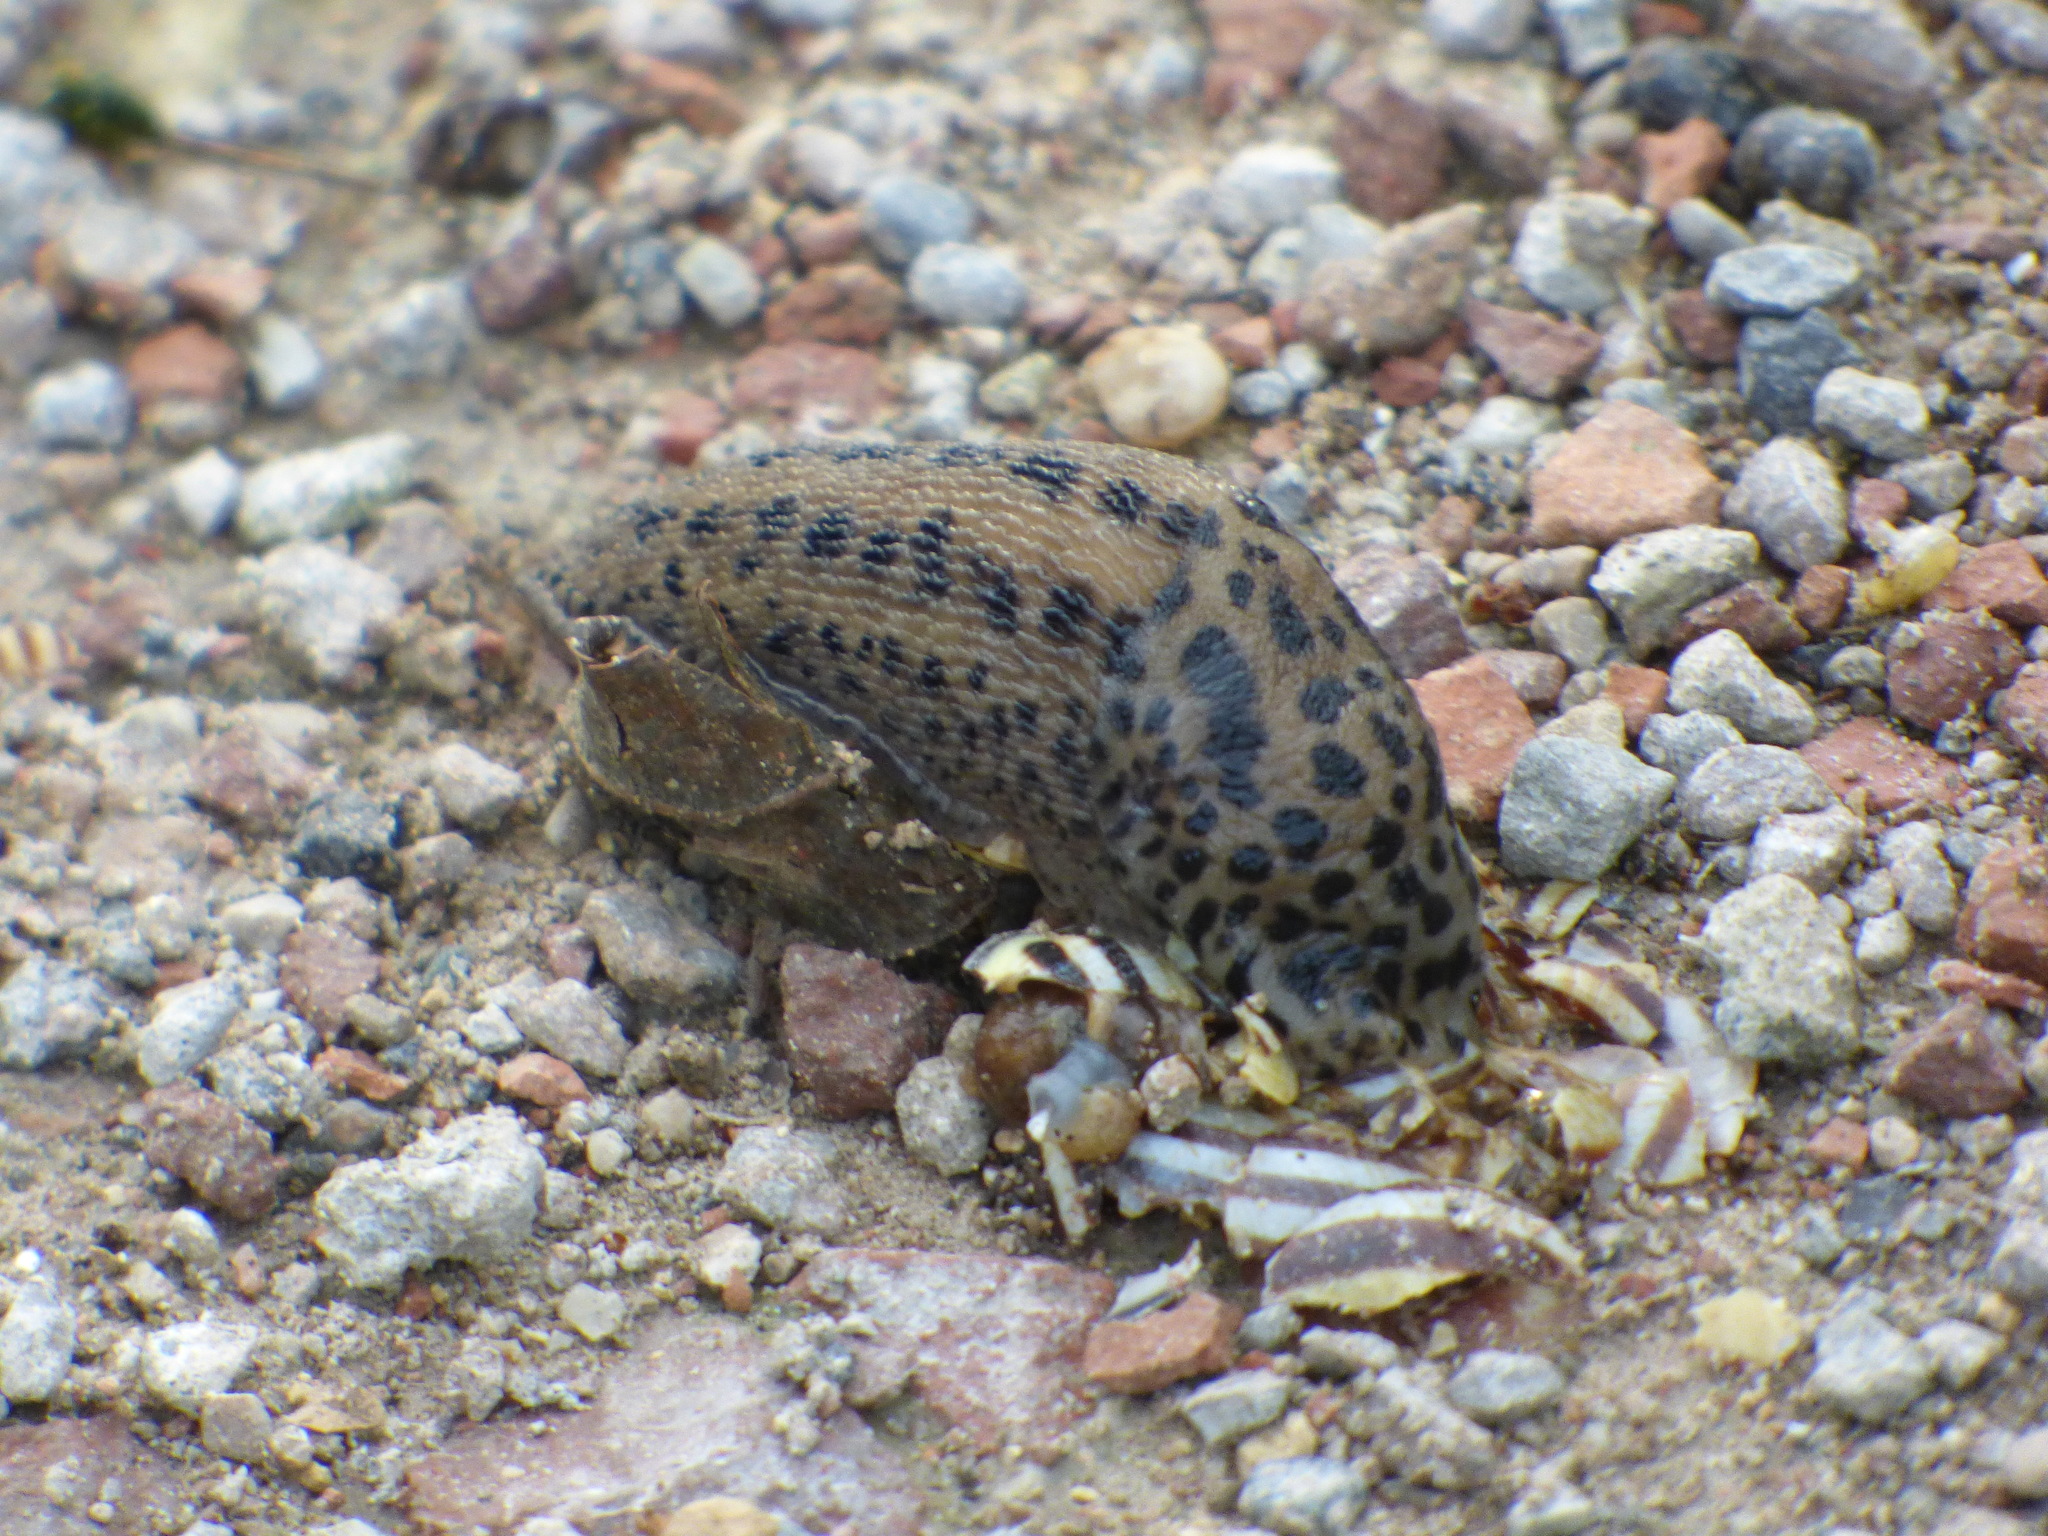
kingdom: Animalia
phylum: Mollusca
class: Gastropoda
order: Stylommatophora
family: Limacidae
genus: Limax
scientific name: Limax maximus
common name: Great grey slug
